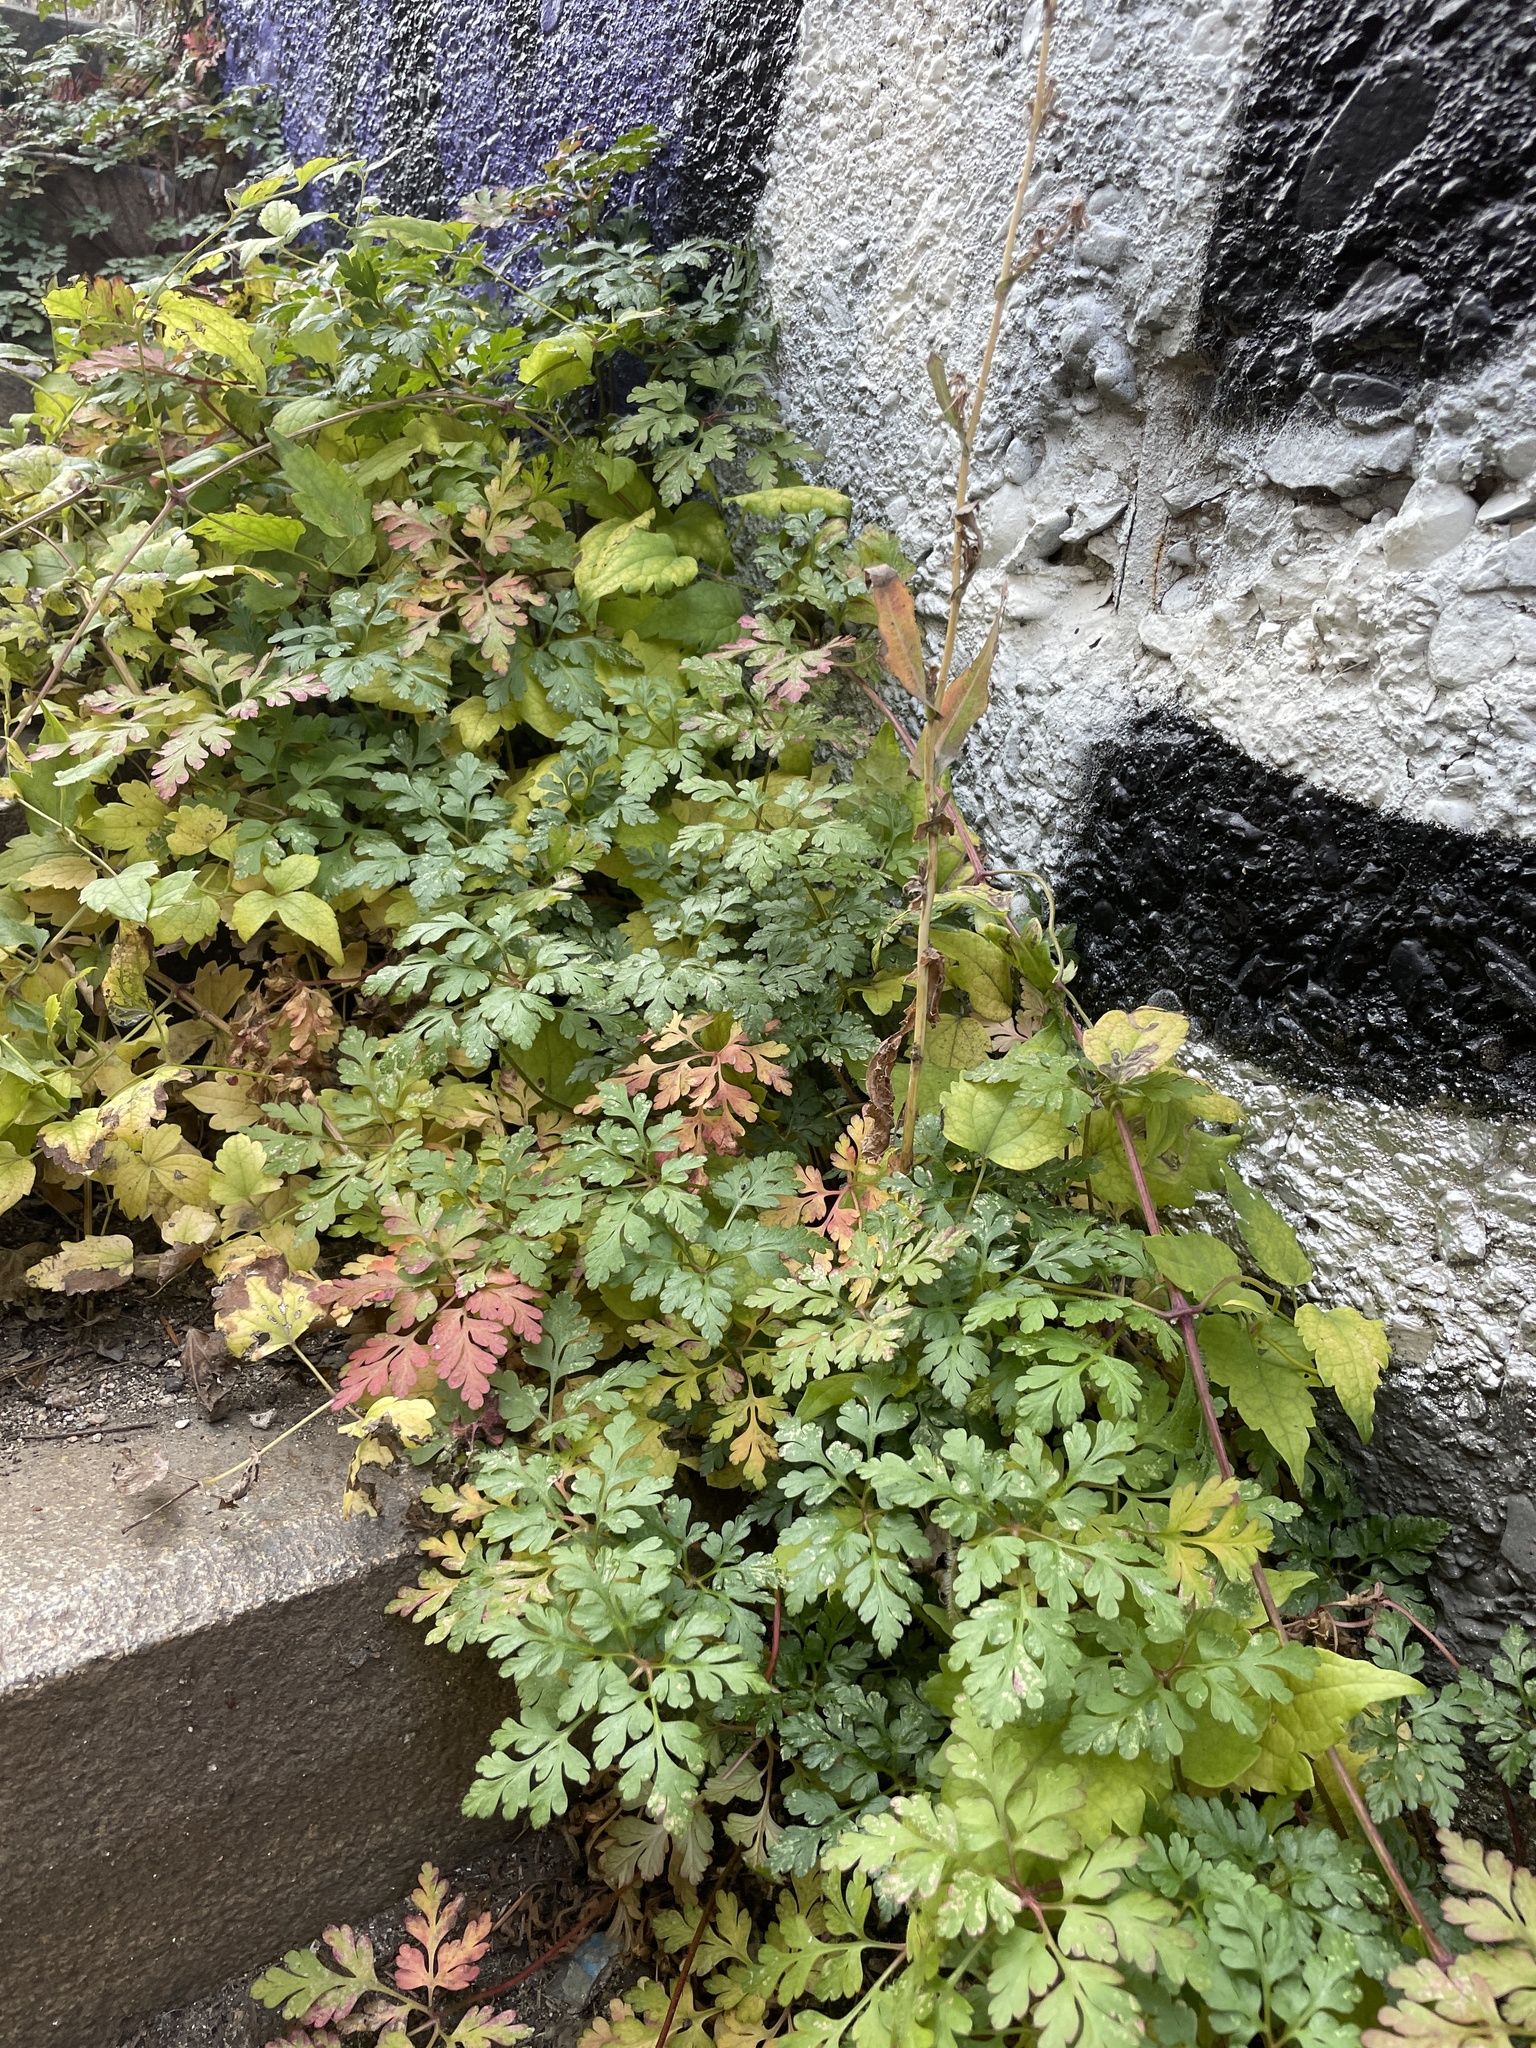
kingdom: Plantae
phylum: Tracheophyta
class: Magnoliopsida
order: Geraniales
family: Geraniaceae
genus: Geranium
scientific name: Geranium robertianum
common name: Herb-robert
